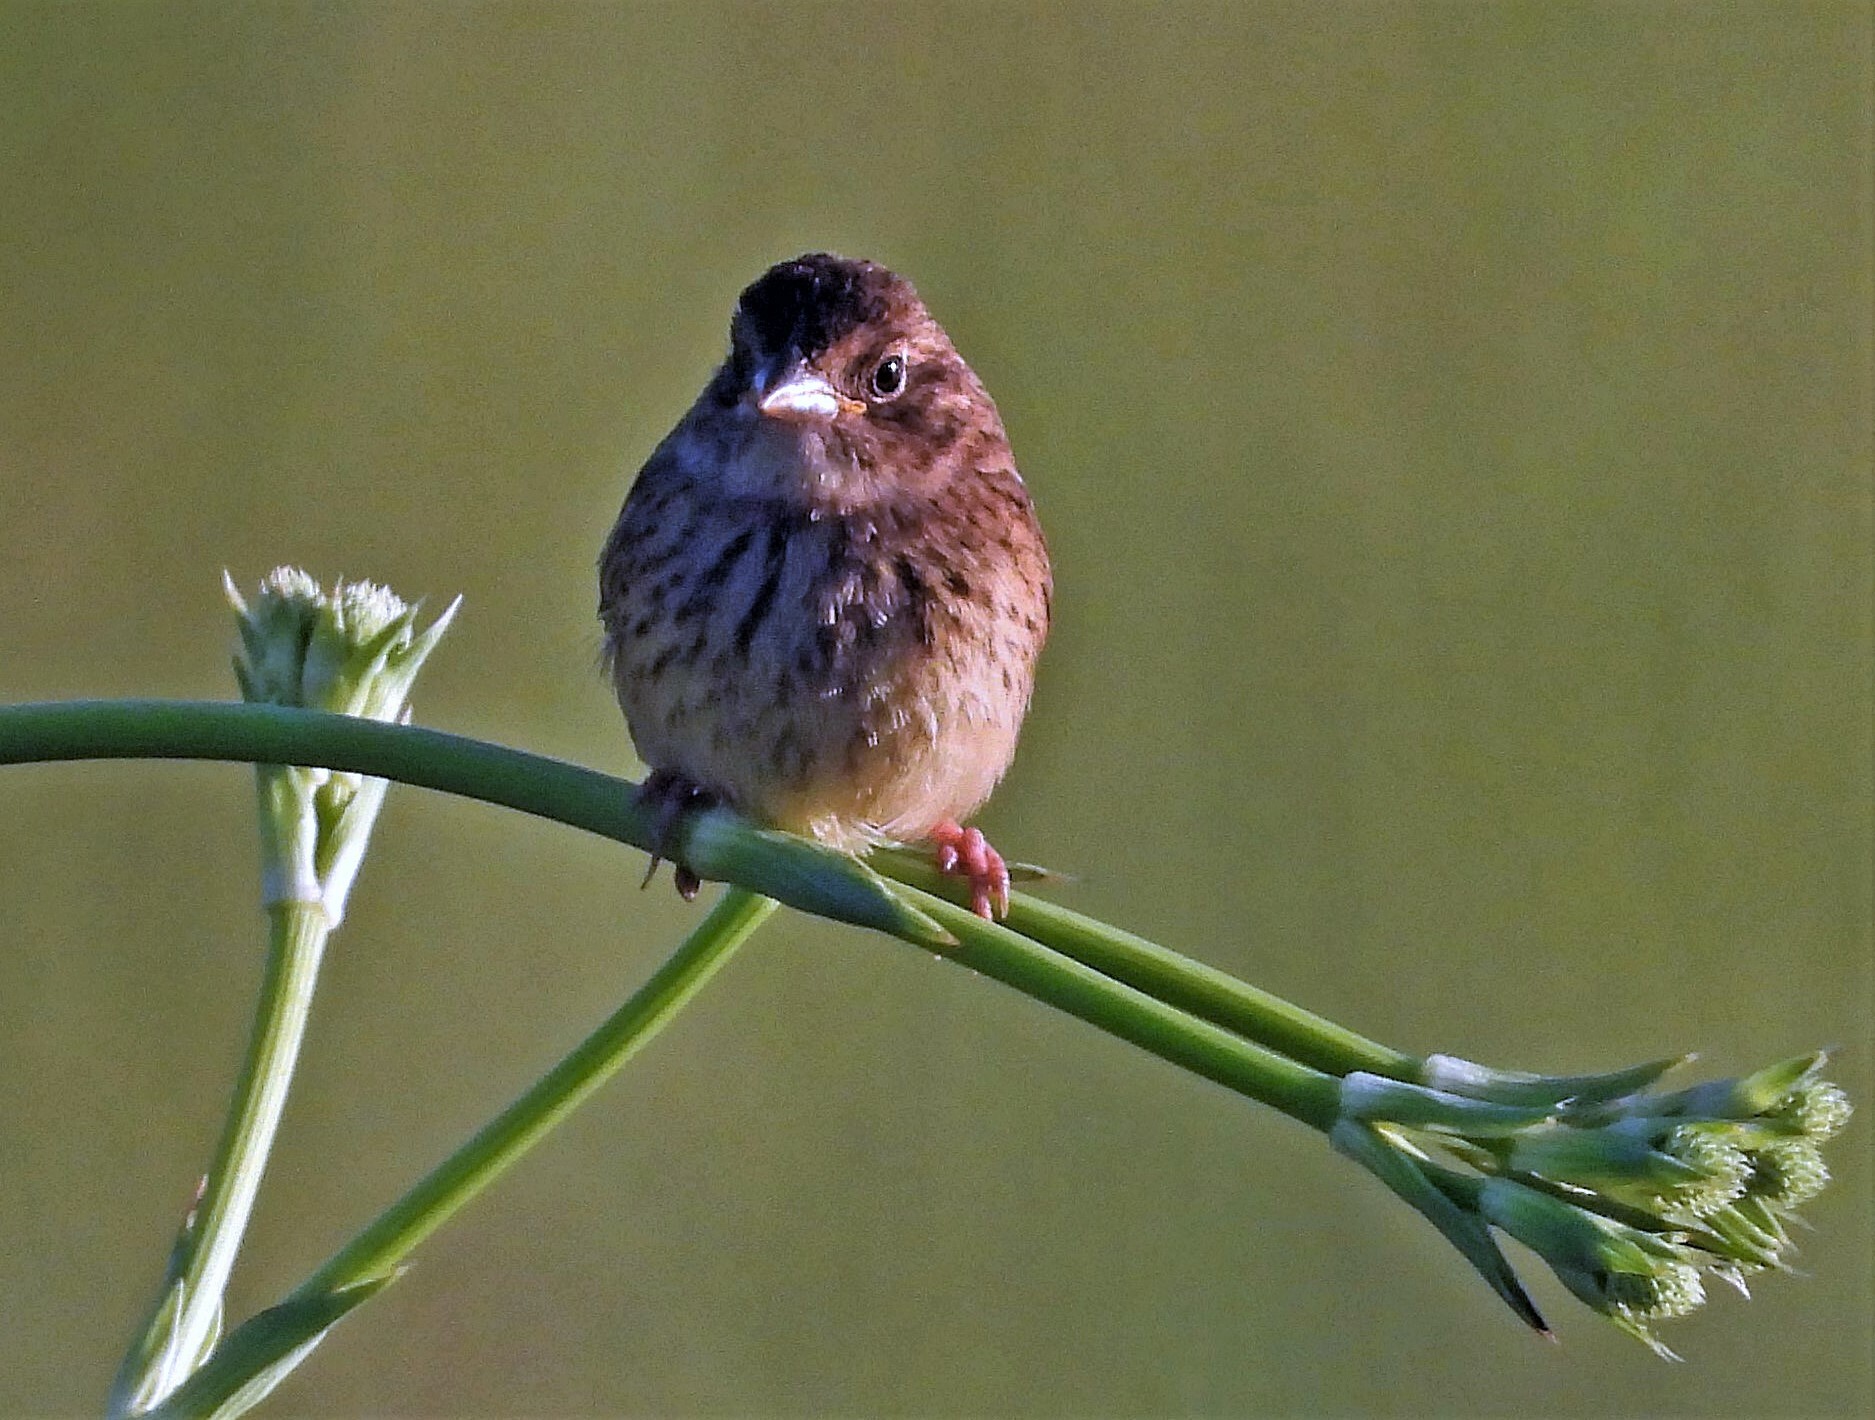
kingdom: Animalia
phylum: Chordata
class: Aves
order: Passeriformes
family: Passerellidae
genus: Ammodramus
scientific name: Ammodramus humeralis
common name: Grassland sparrow
